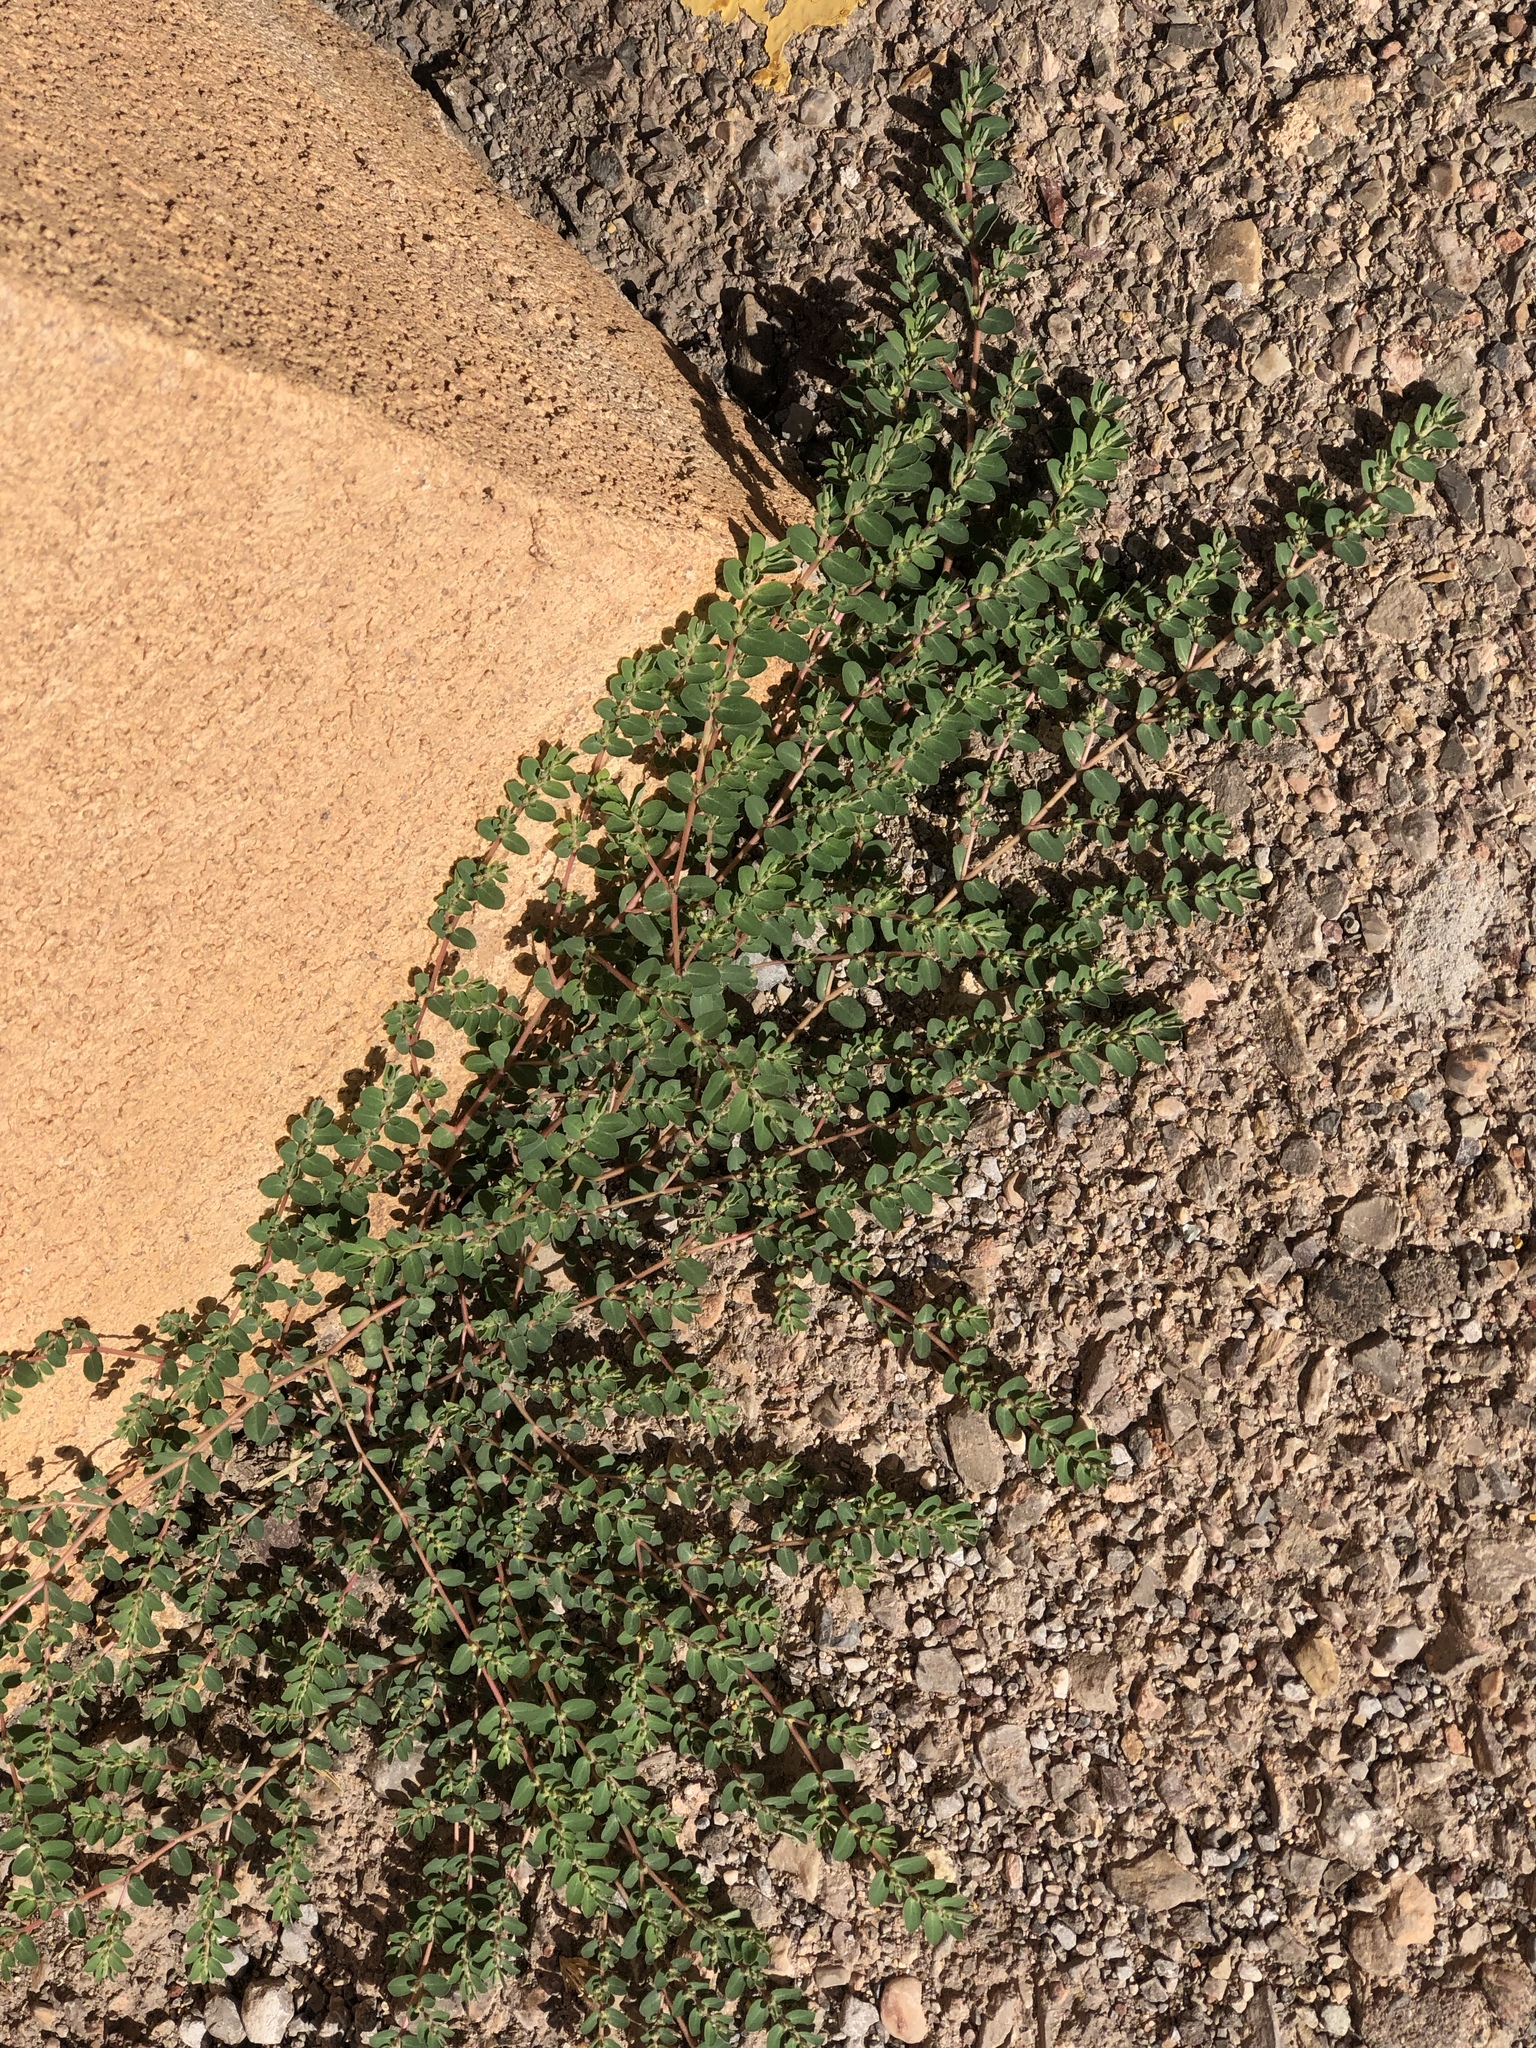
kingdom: Plantae
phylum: Tracheophyta
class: Magnoliopsida
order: Malpighiales
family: Euphorbiaceae
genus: Euphorbia
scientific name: Euphorbia prostrata
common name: Prostrate sandmat
